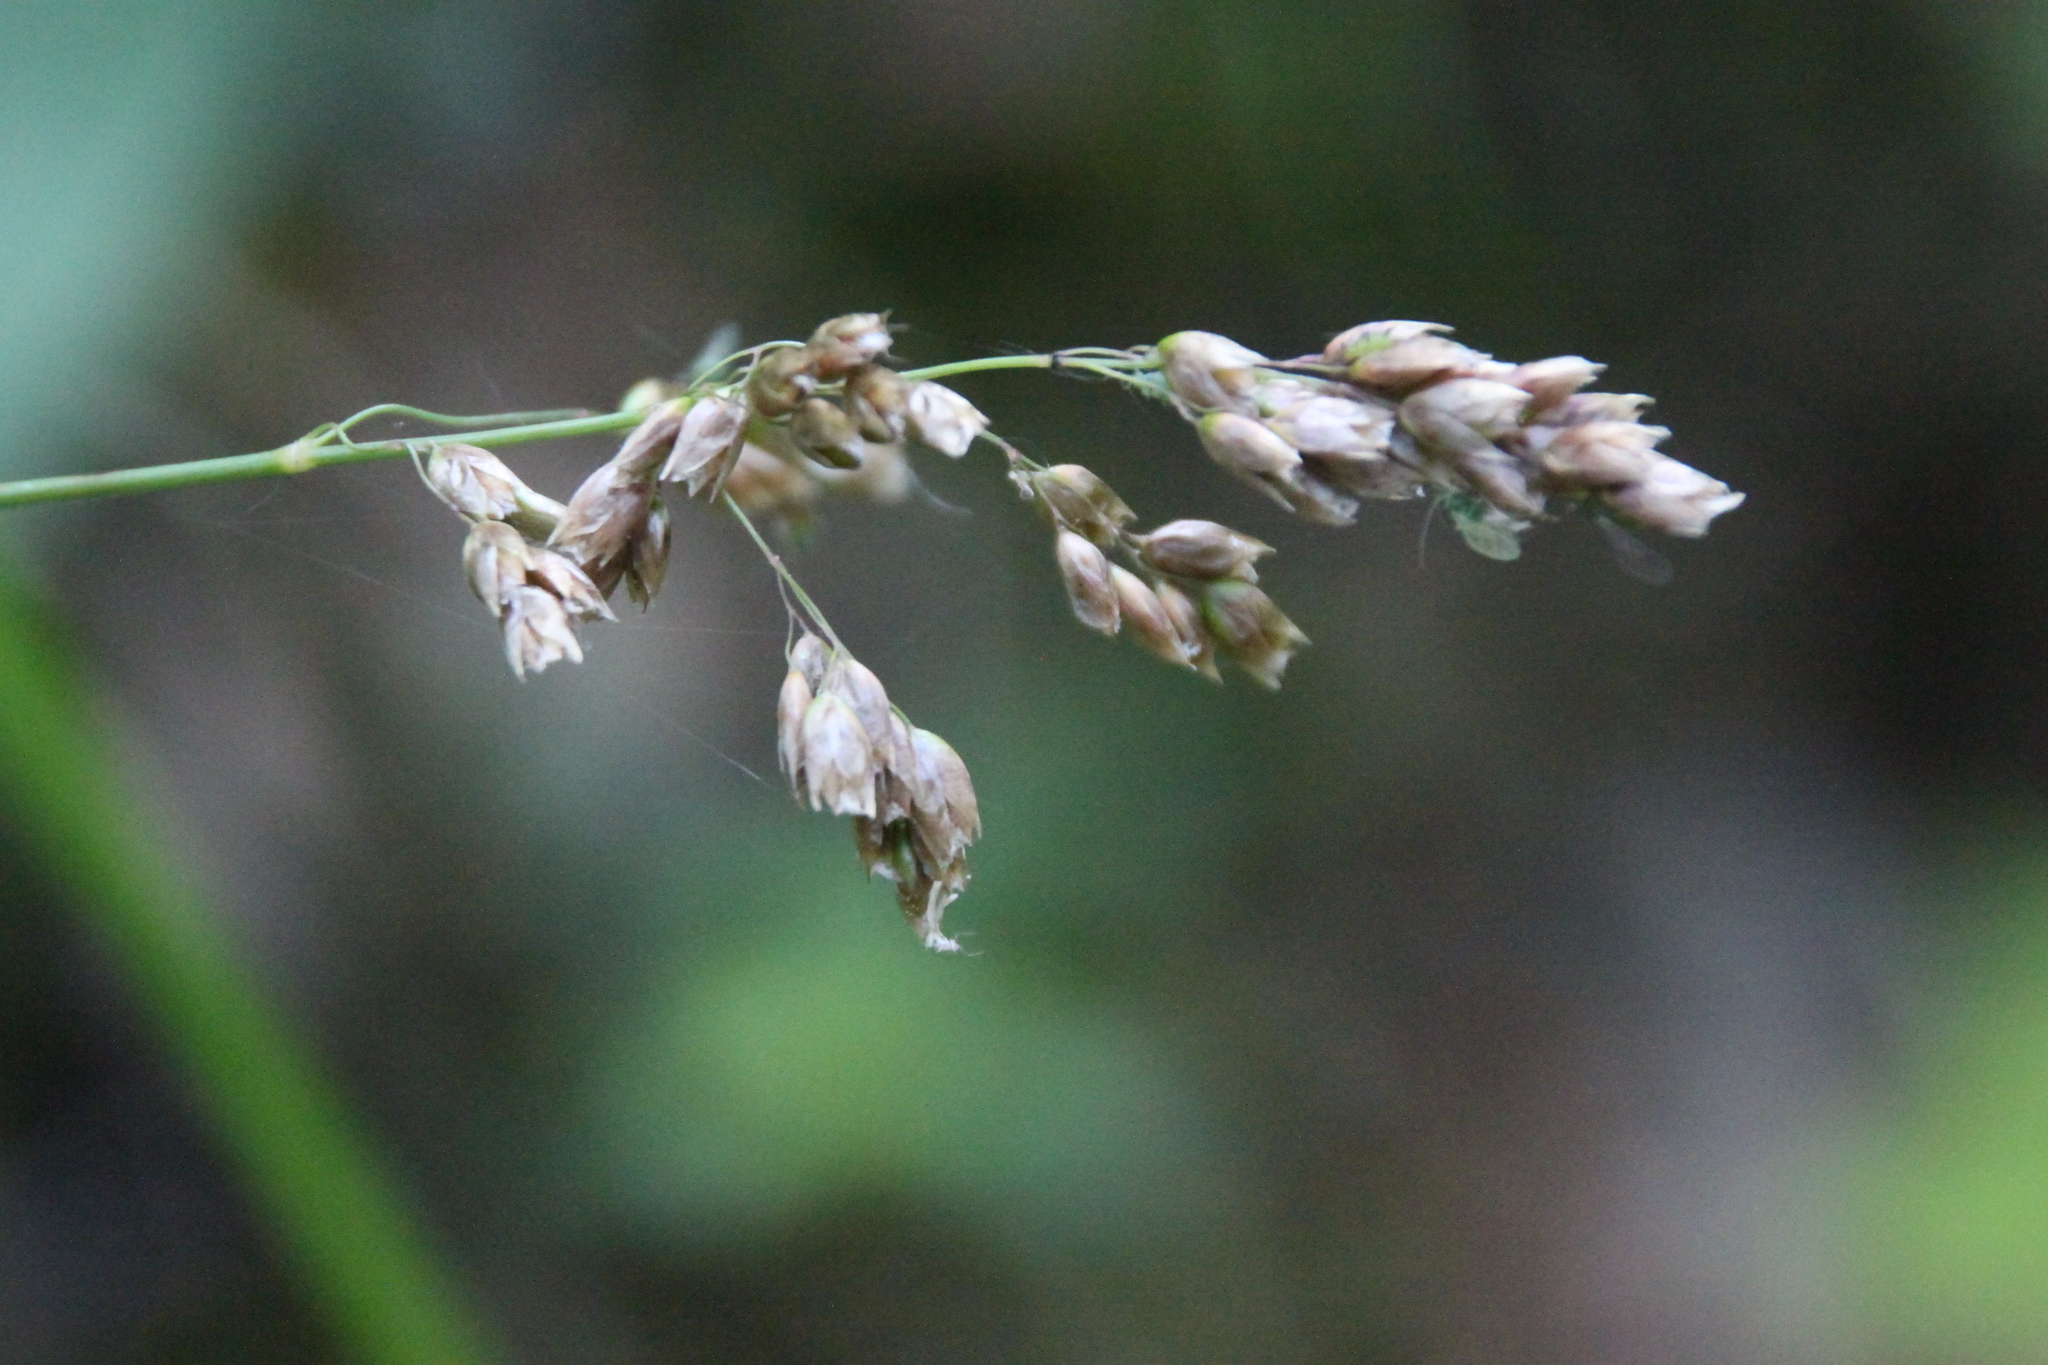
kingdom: Plantae
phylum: Tracheophyta
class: Liliopsida
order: Poales
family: Poaceae
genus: Anthoxanthum
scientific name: Anthoxanthum nitens
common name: Holy grass
